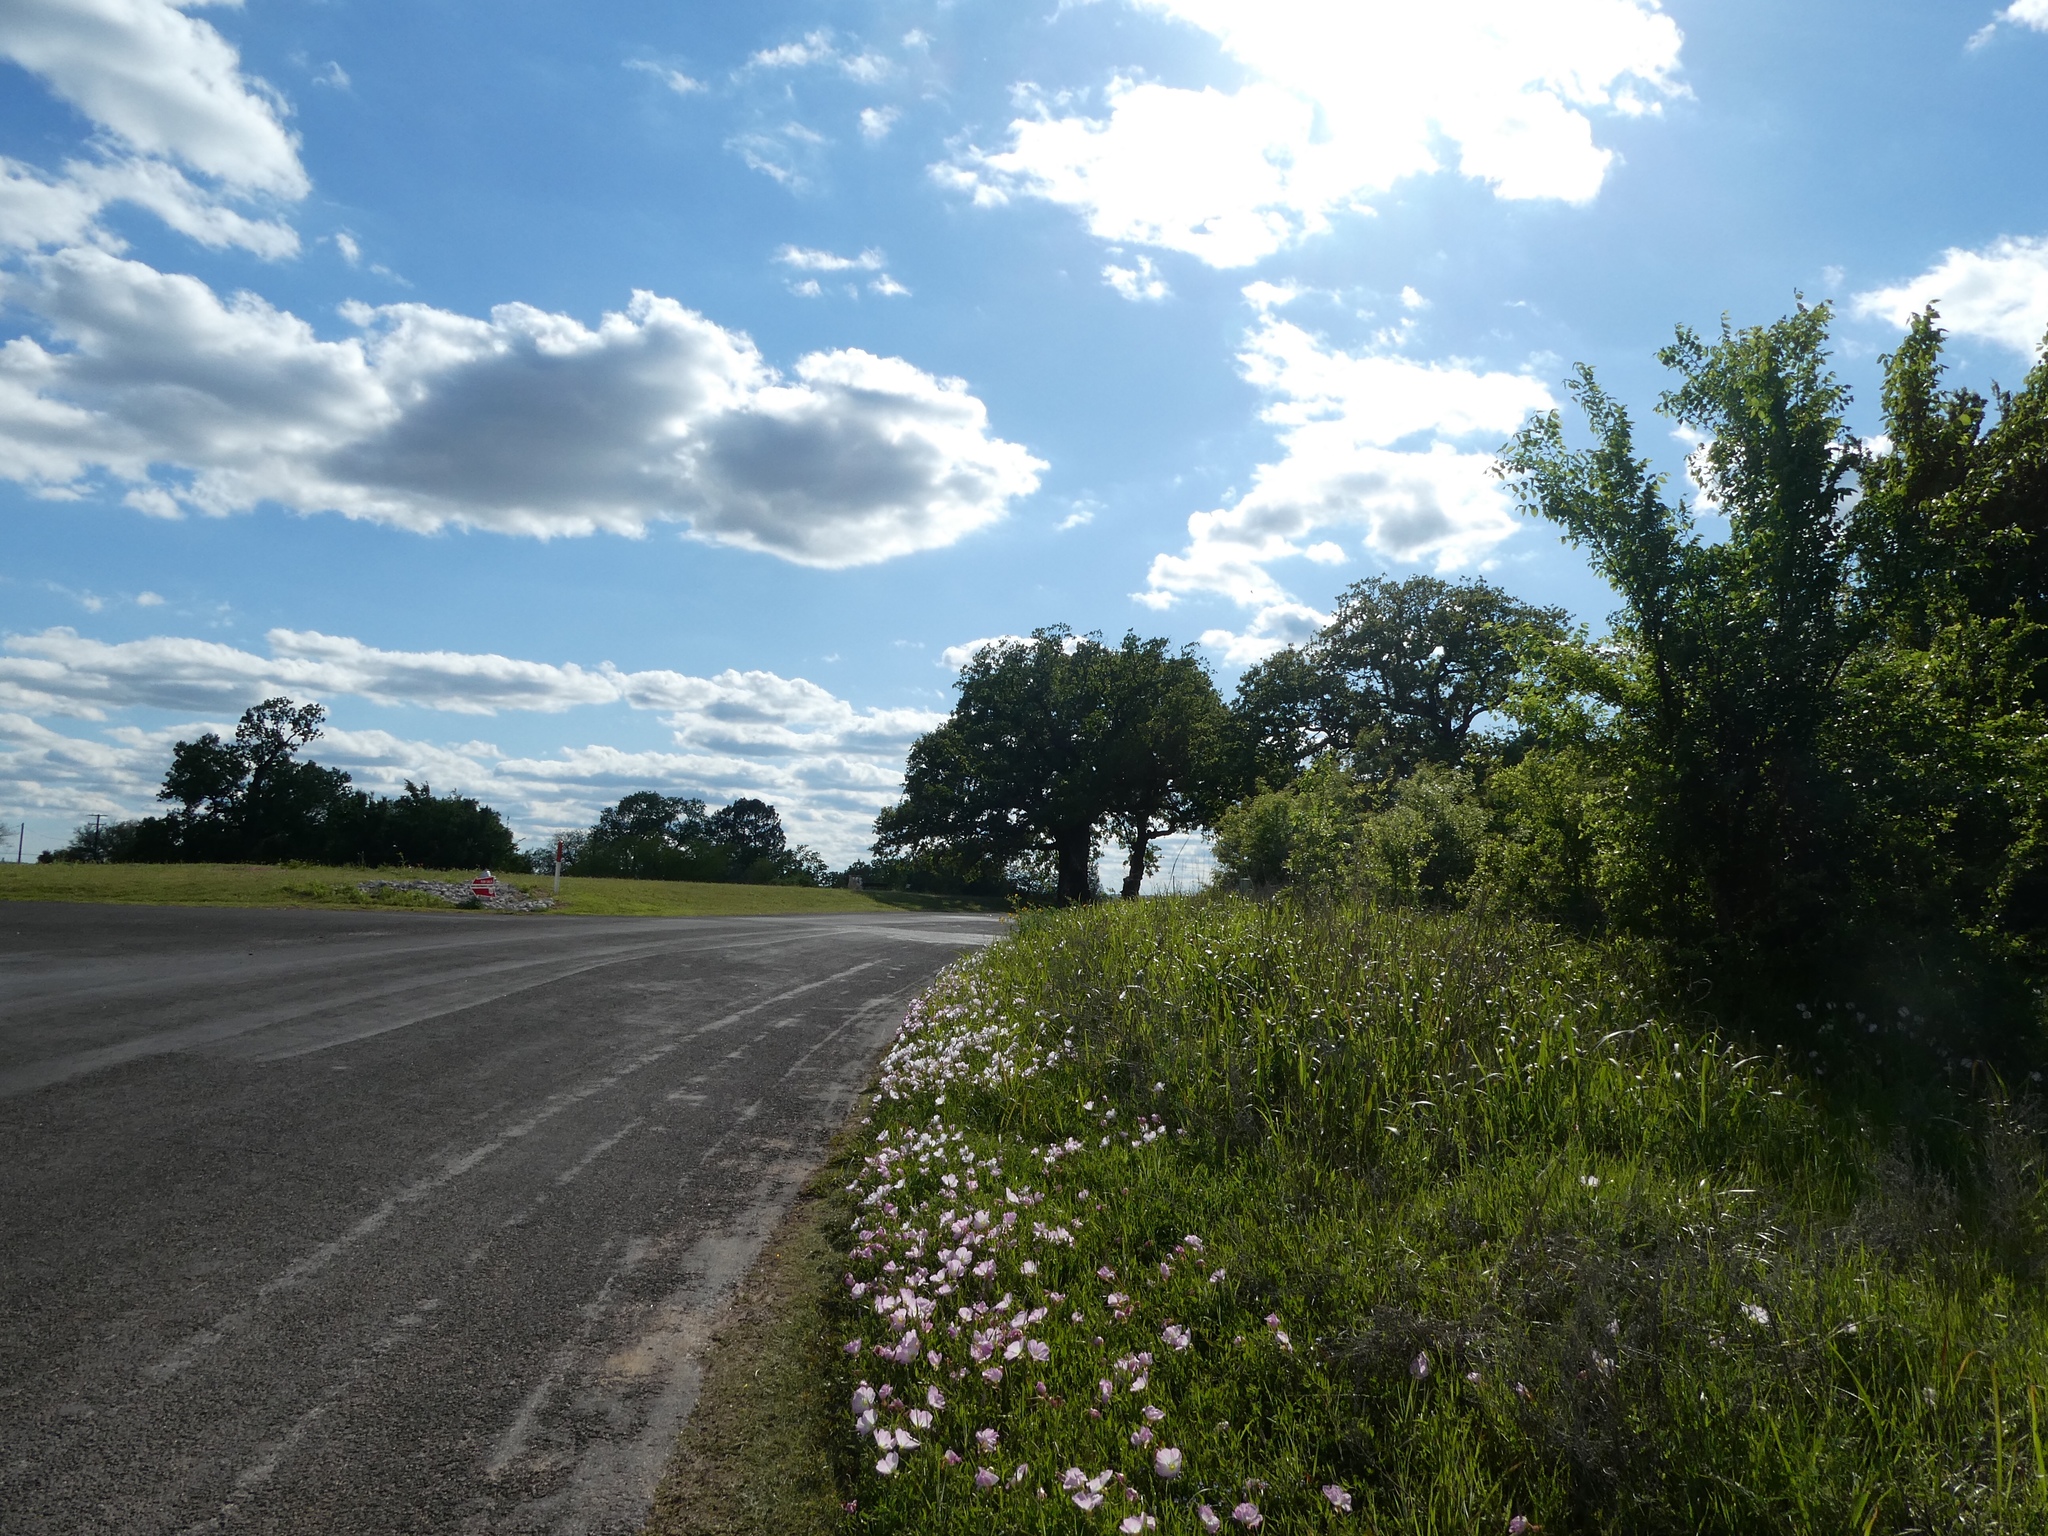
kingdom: Plantae
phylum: Tracheophyta
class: Magnoliopsida
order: Myrtales
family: Onagraceae
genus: Oenothera
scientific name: Oenothera speciosa
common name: White evening-primrose
